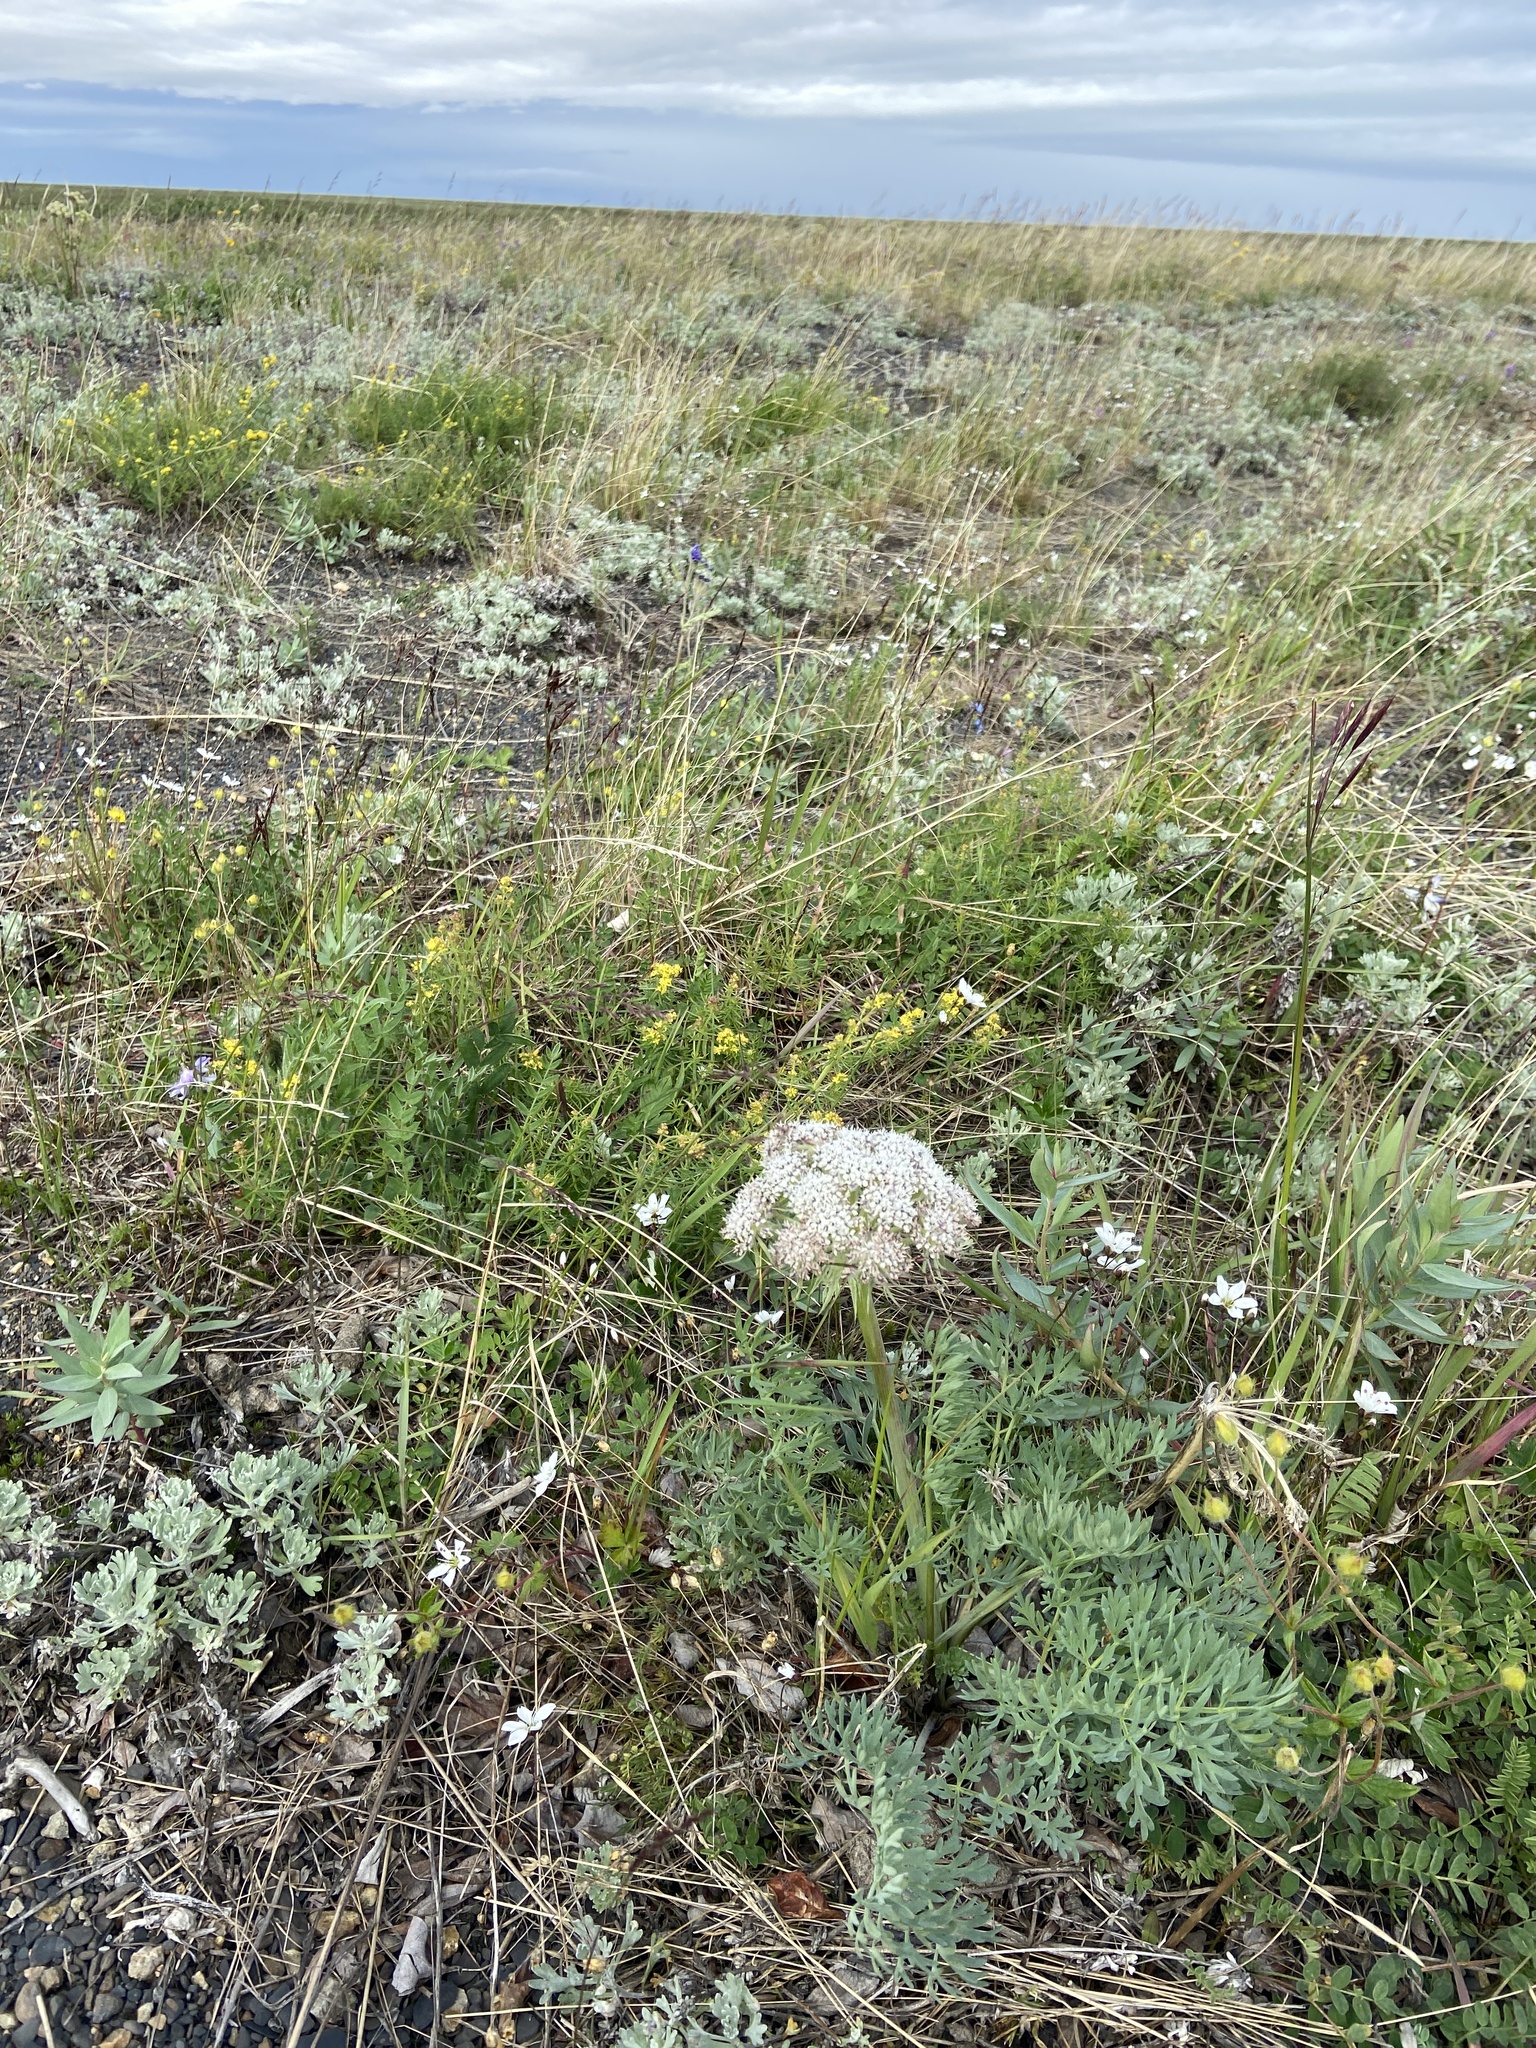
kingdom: Plantae
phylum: Tracheophyta
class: Magnoliopsida
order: Apiales
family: Apiaceae
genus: Phlojodicarpus
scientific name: Phlojodicarpus villosus
